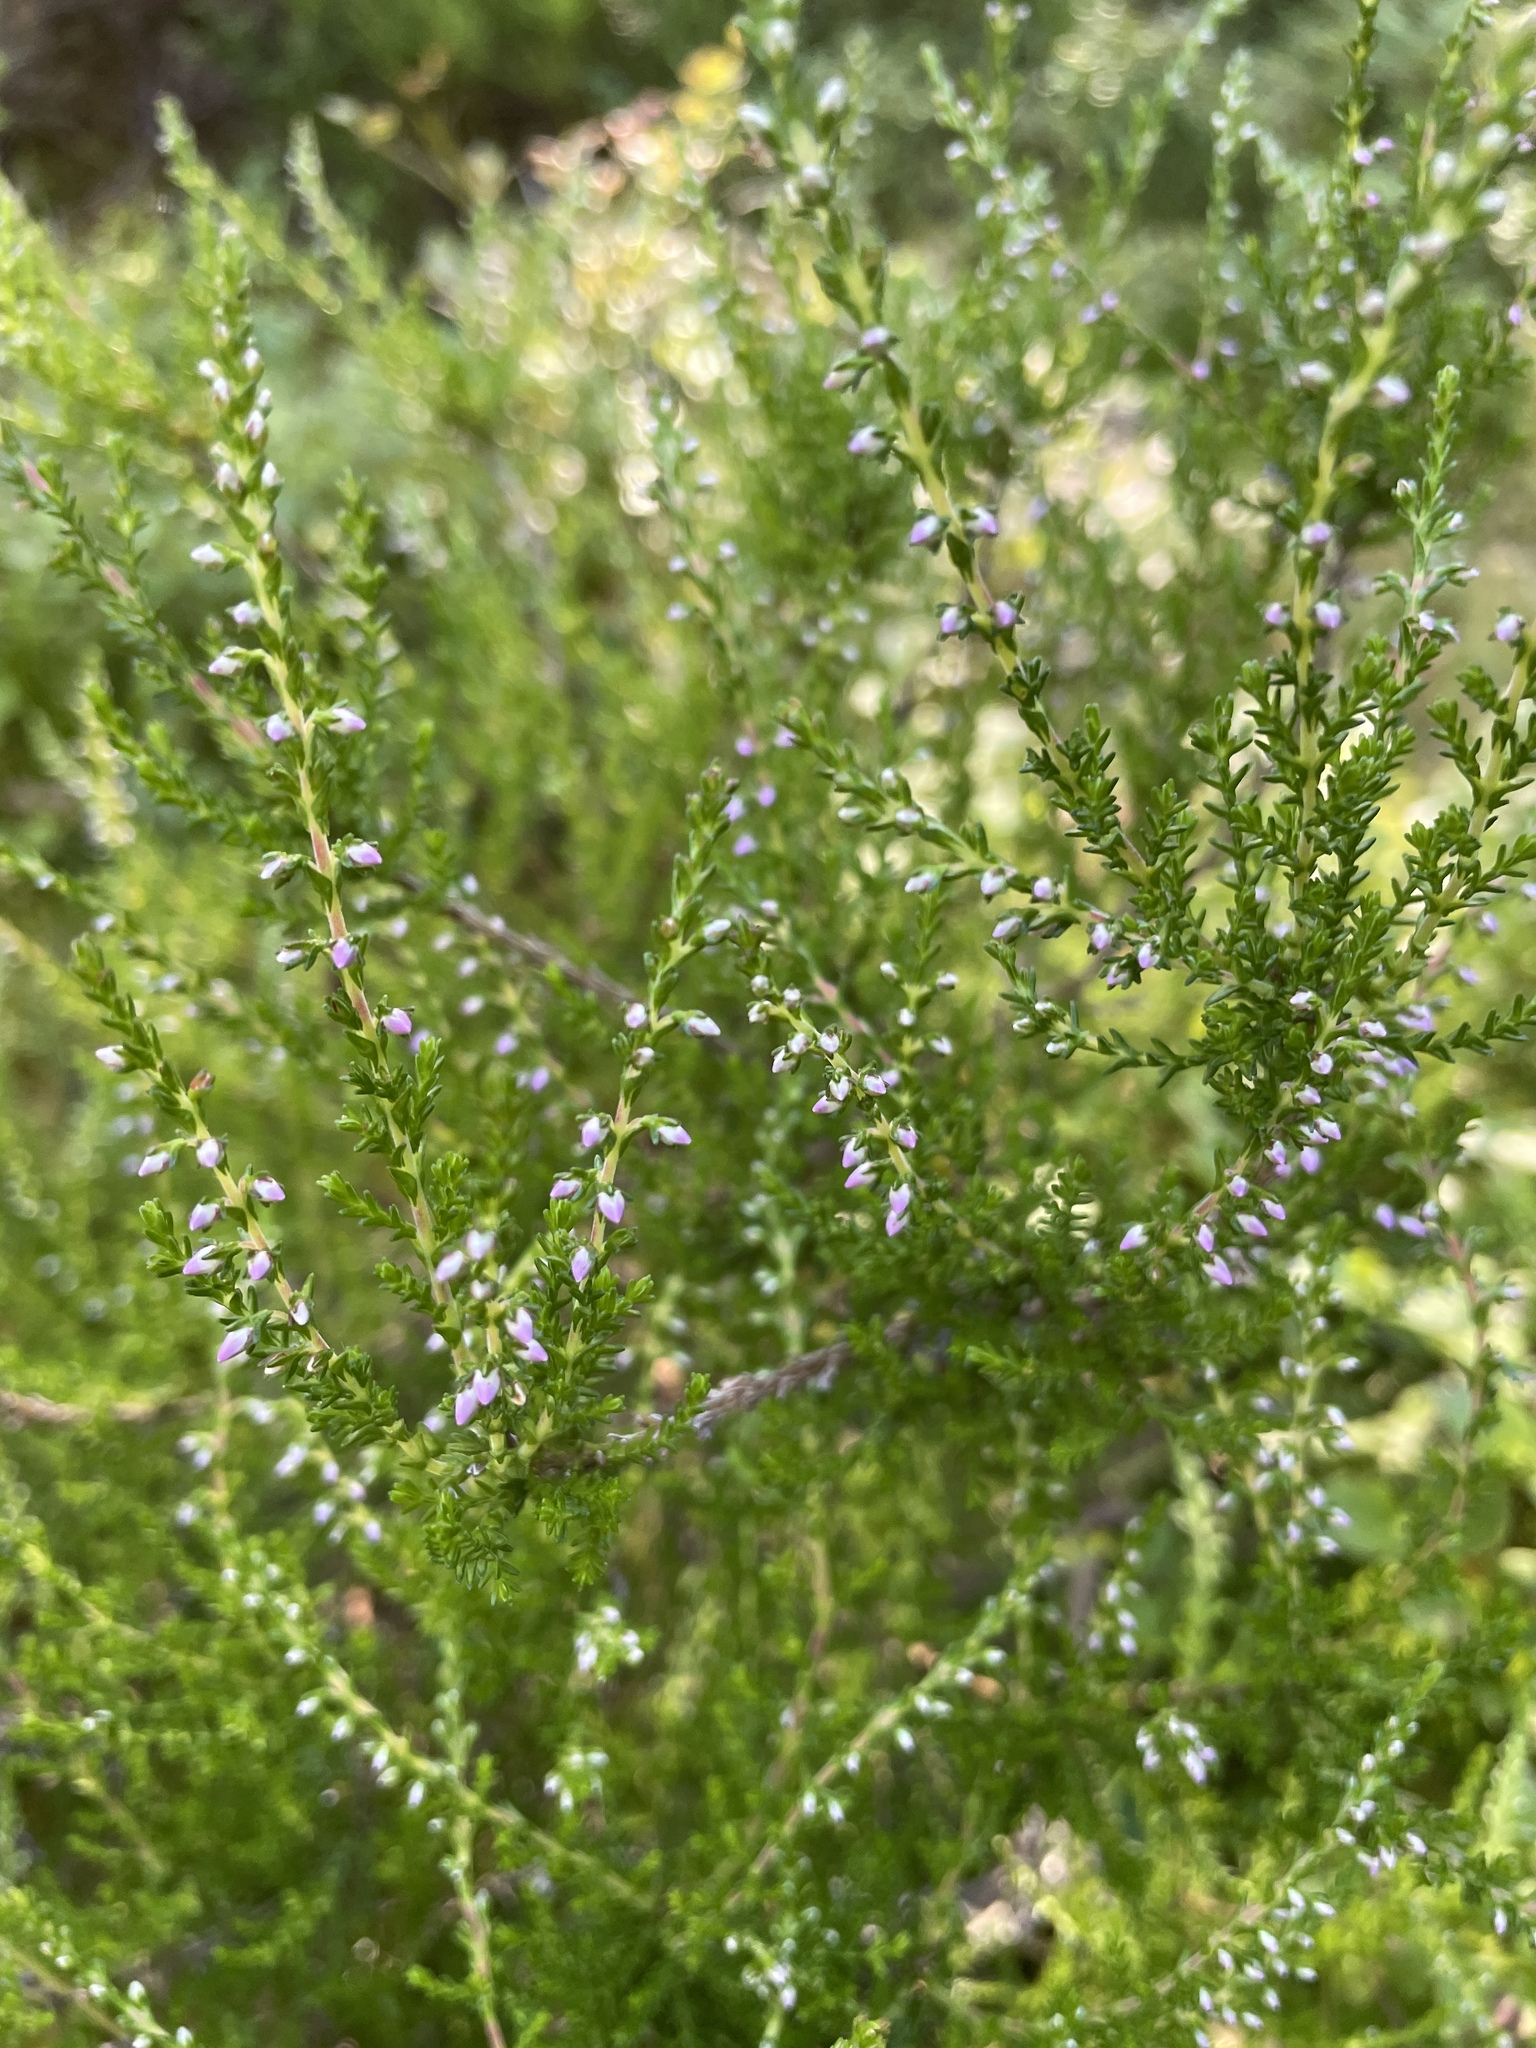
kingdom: Plantae
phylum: Tracheophyta
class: Magnoliopsida
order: Ericales
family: Ericaceae
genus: Calluna
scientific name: Calluna vulgaris
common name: Heather
